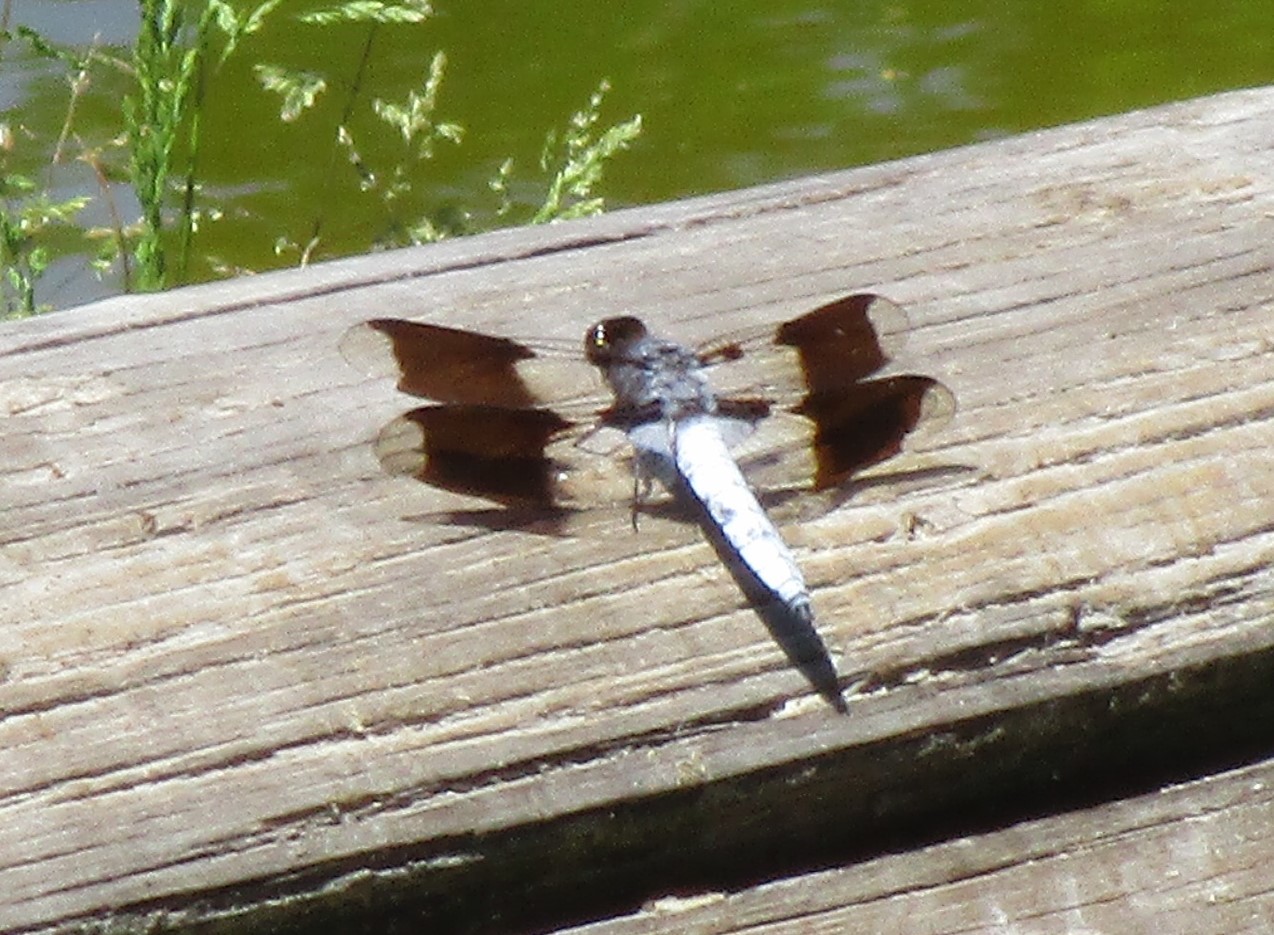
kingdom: Animalia
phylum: Arthropoda
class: Insecta
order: Odonata
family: Libellulidae
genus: Plathemis
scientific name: Plathemis lydia
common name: Common whitetail
